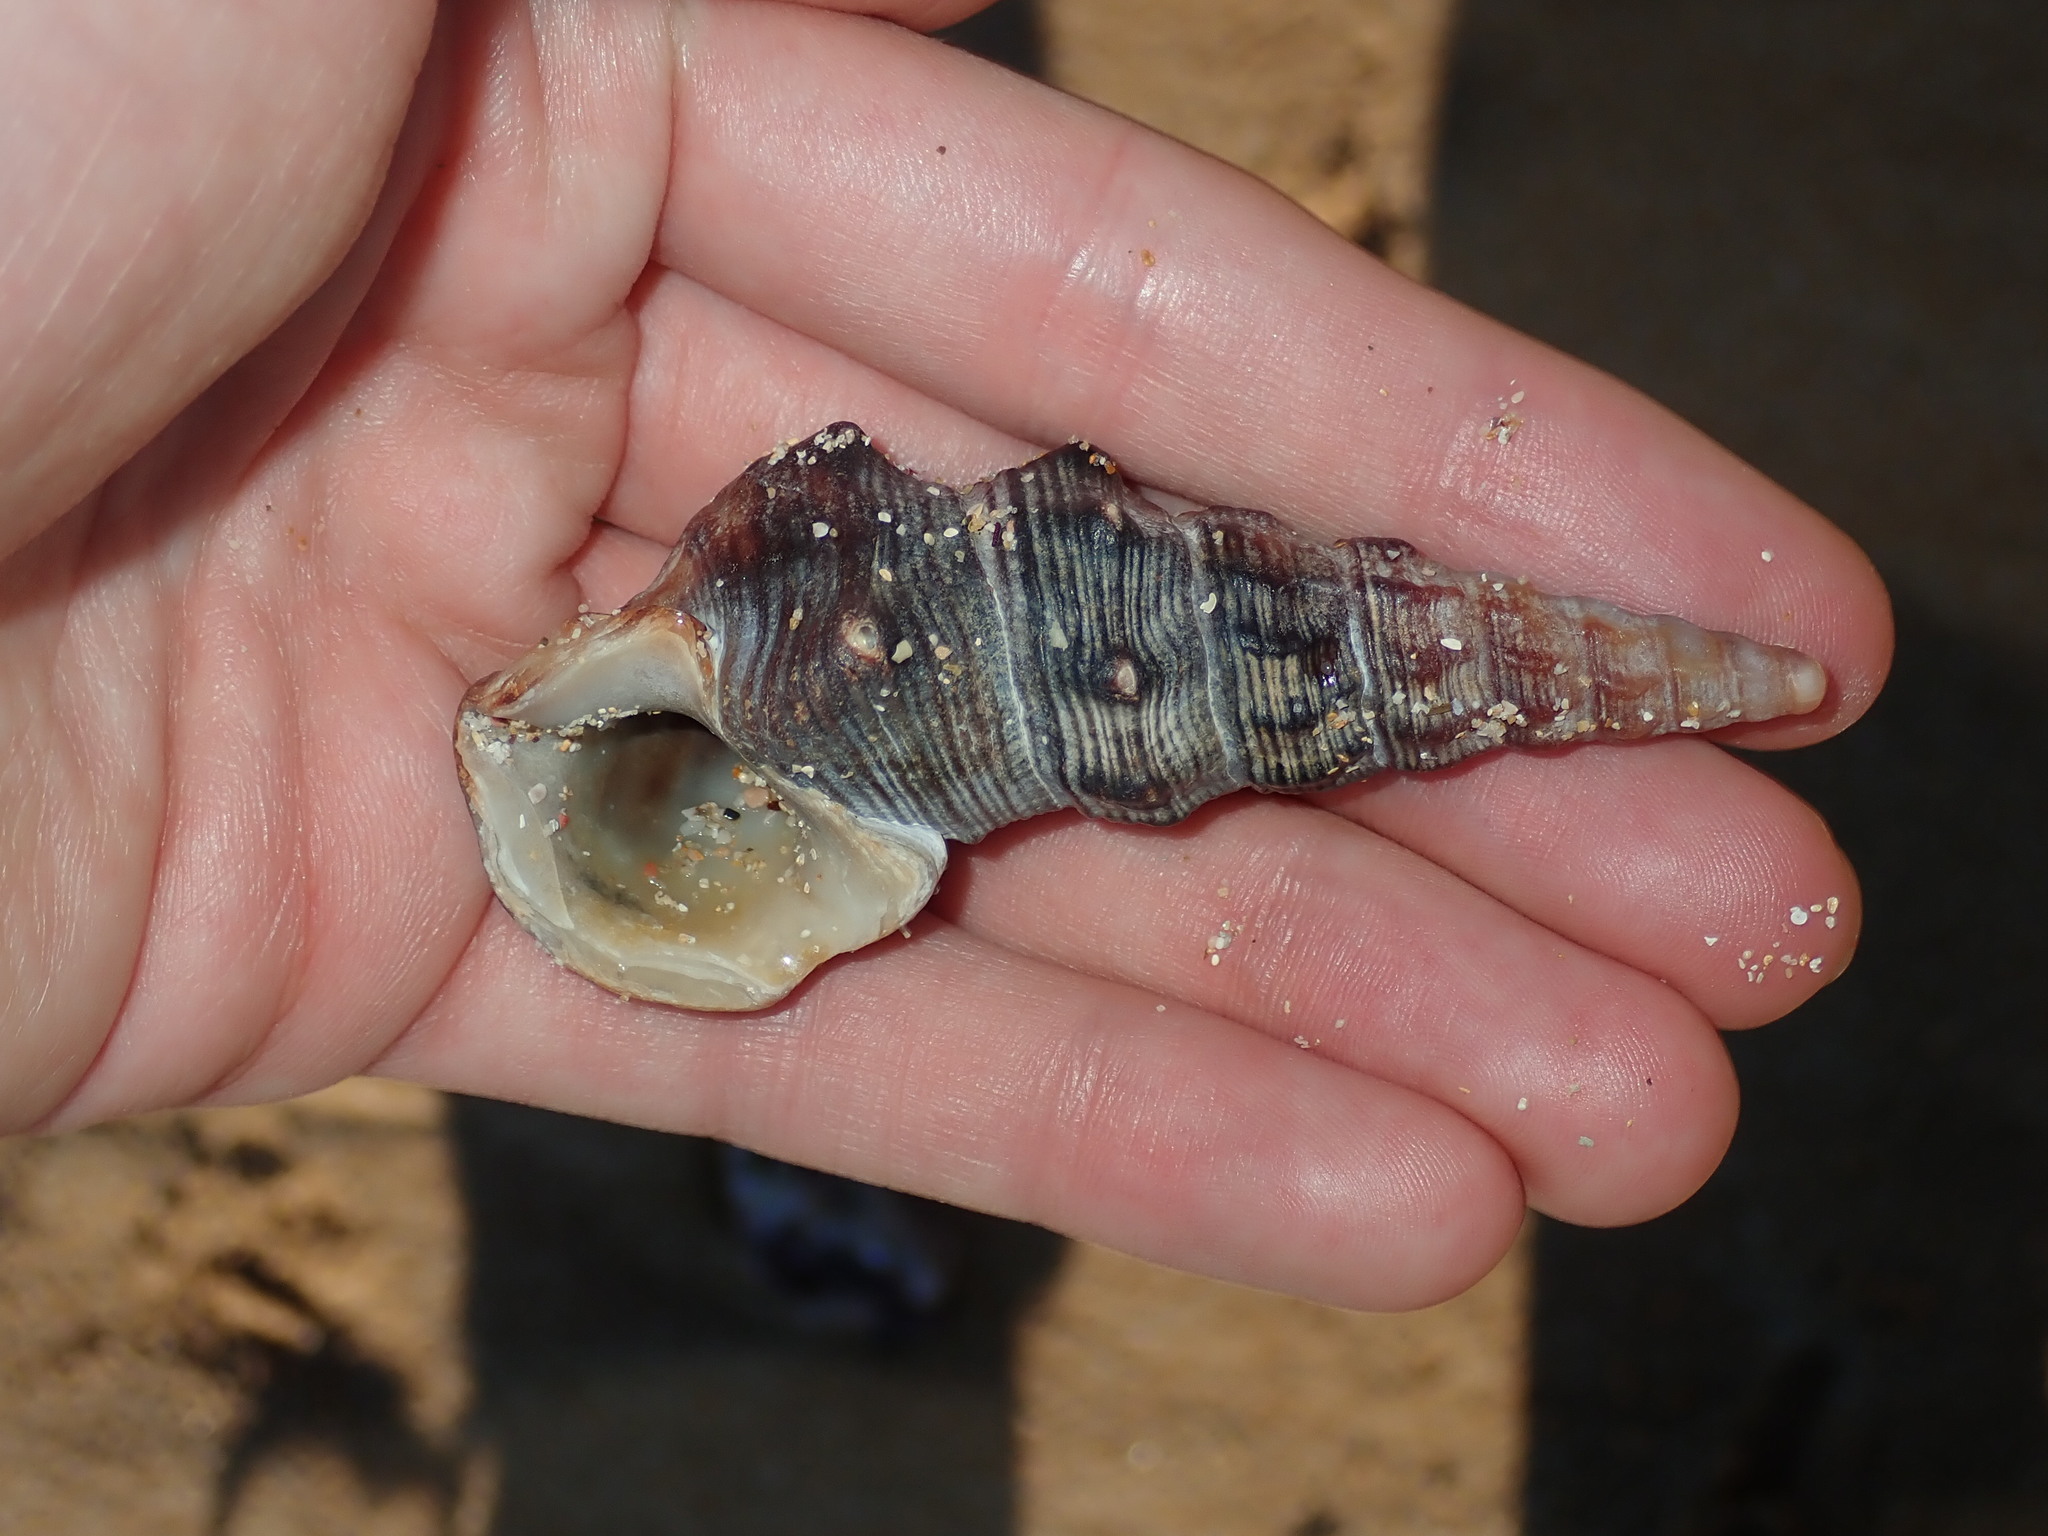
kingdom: Animalia
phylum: Mollusca
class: Gastropoda
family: Batillariidae
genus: Pyrazus
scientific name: Pyrazus ebeninus
